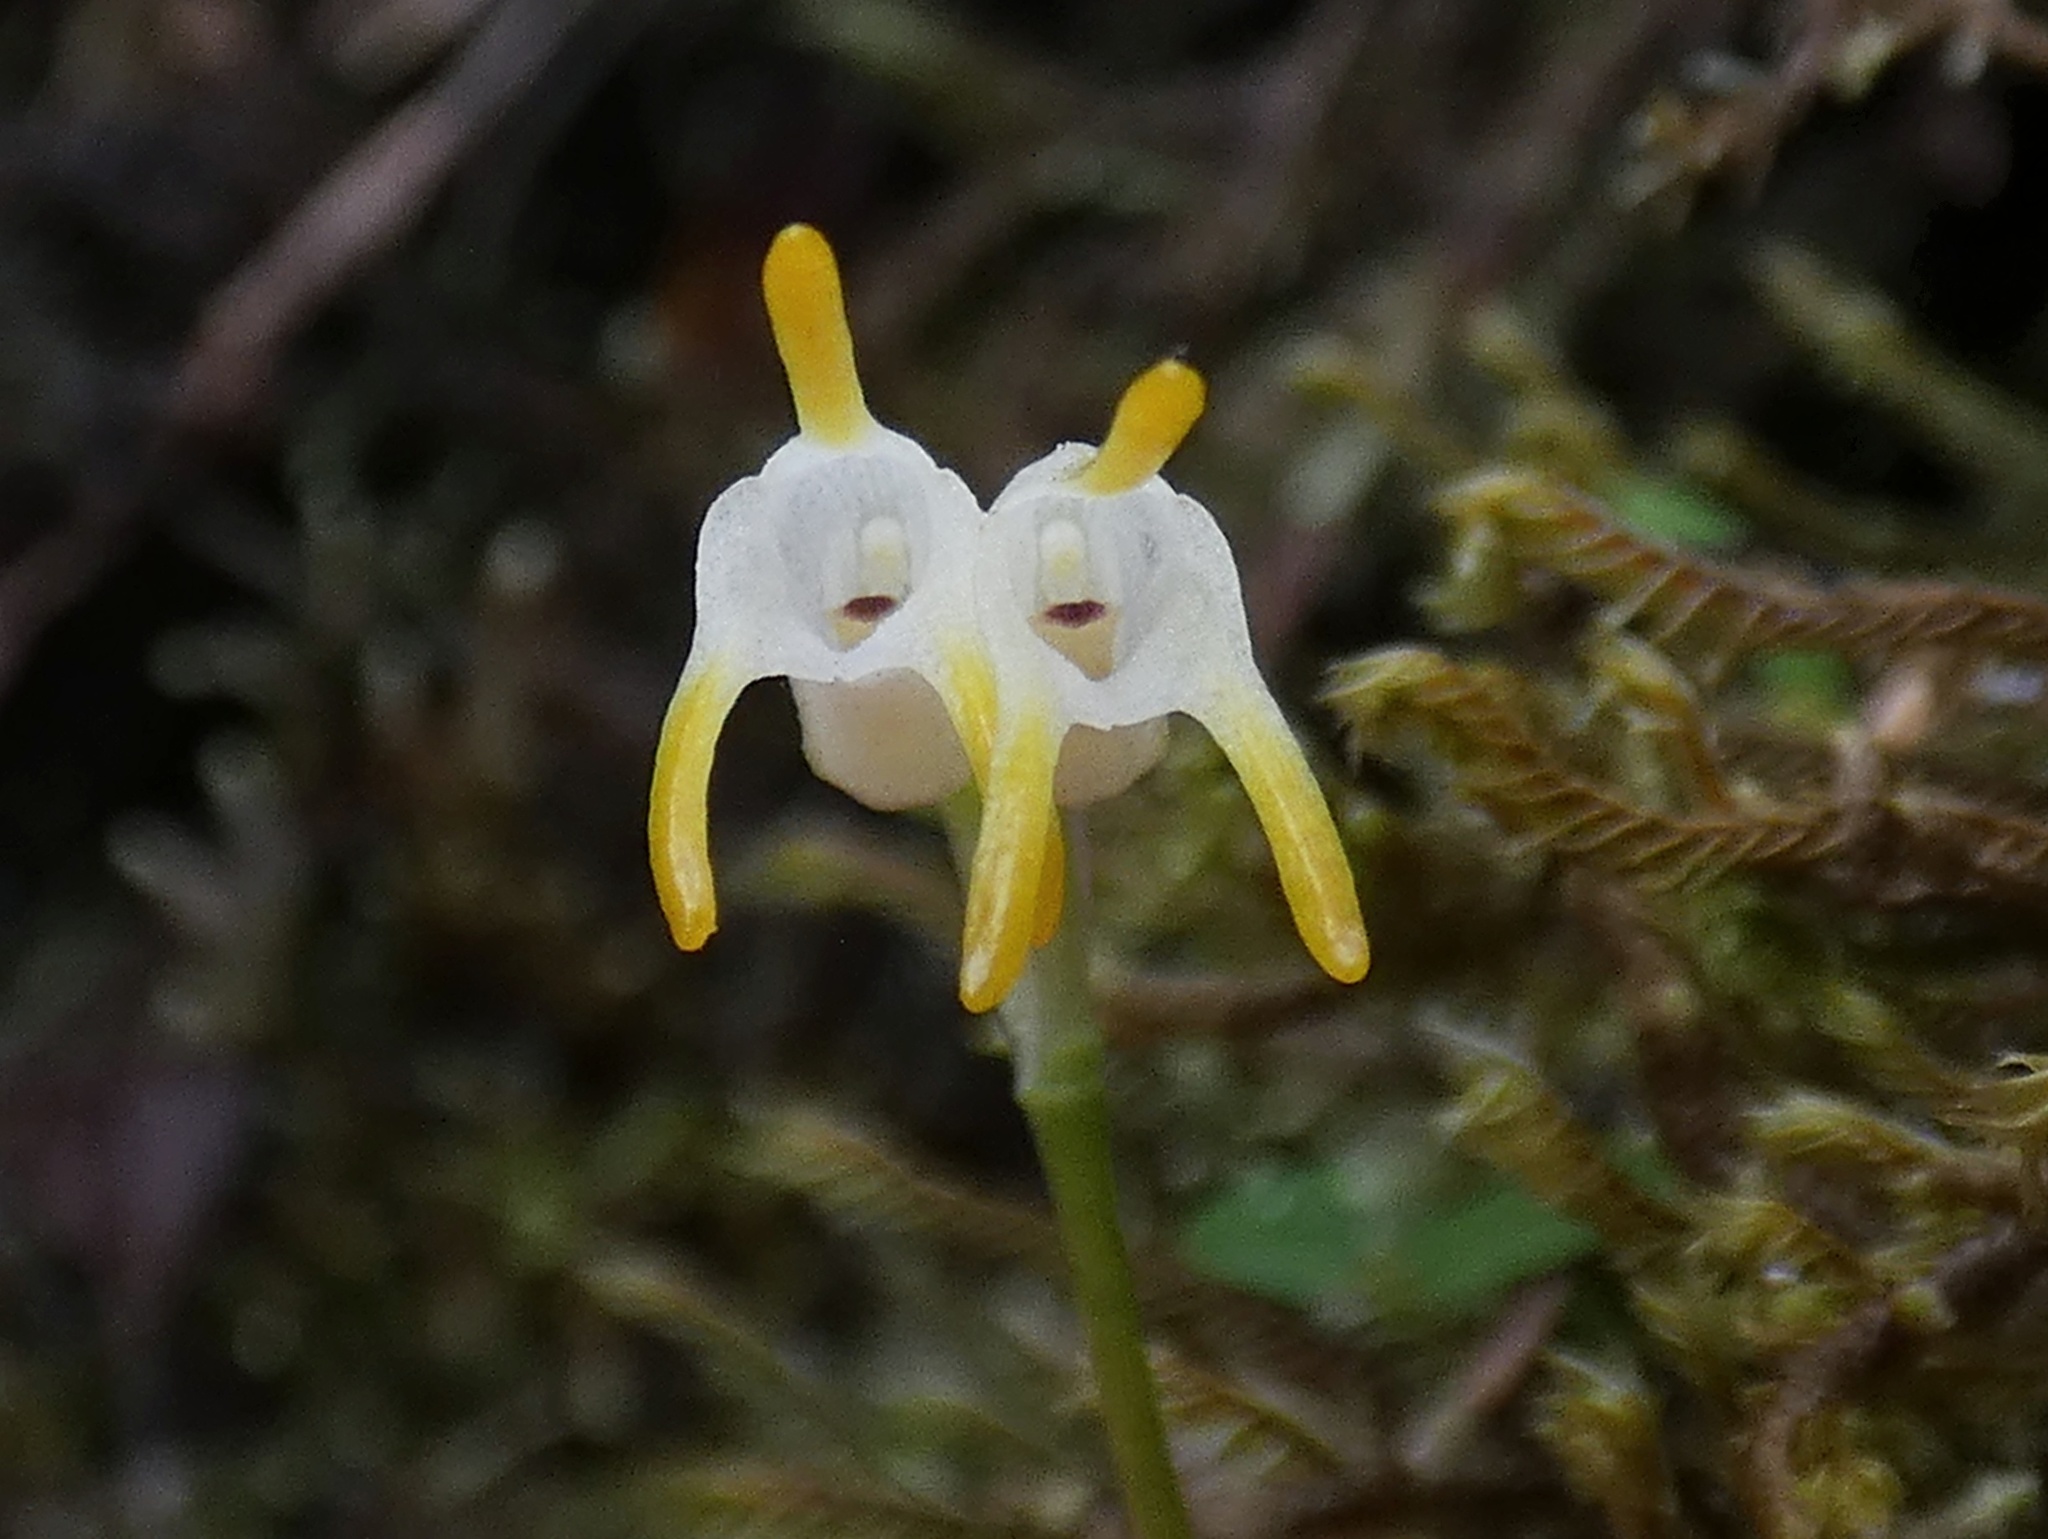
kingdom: Plantae
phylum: Tracheophyta
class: Liliopsida
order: Asparagales
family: Orchidaceae
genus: Masdevallia
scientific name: Masdevallia chontalensis
